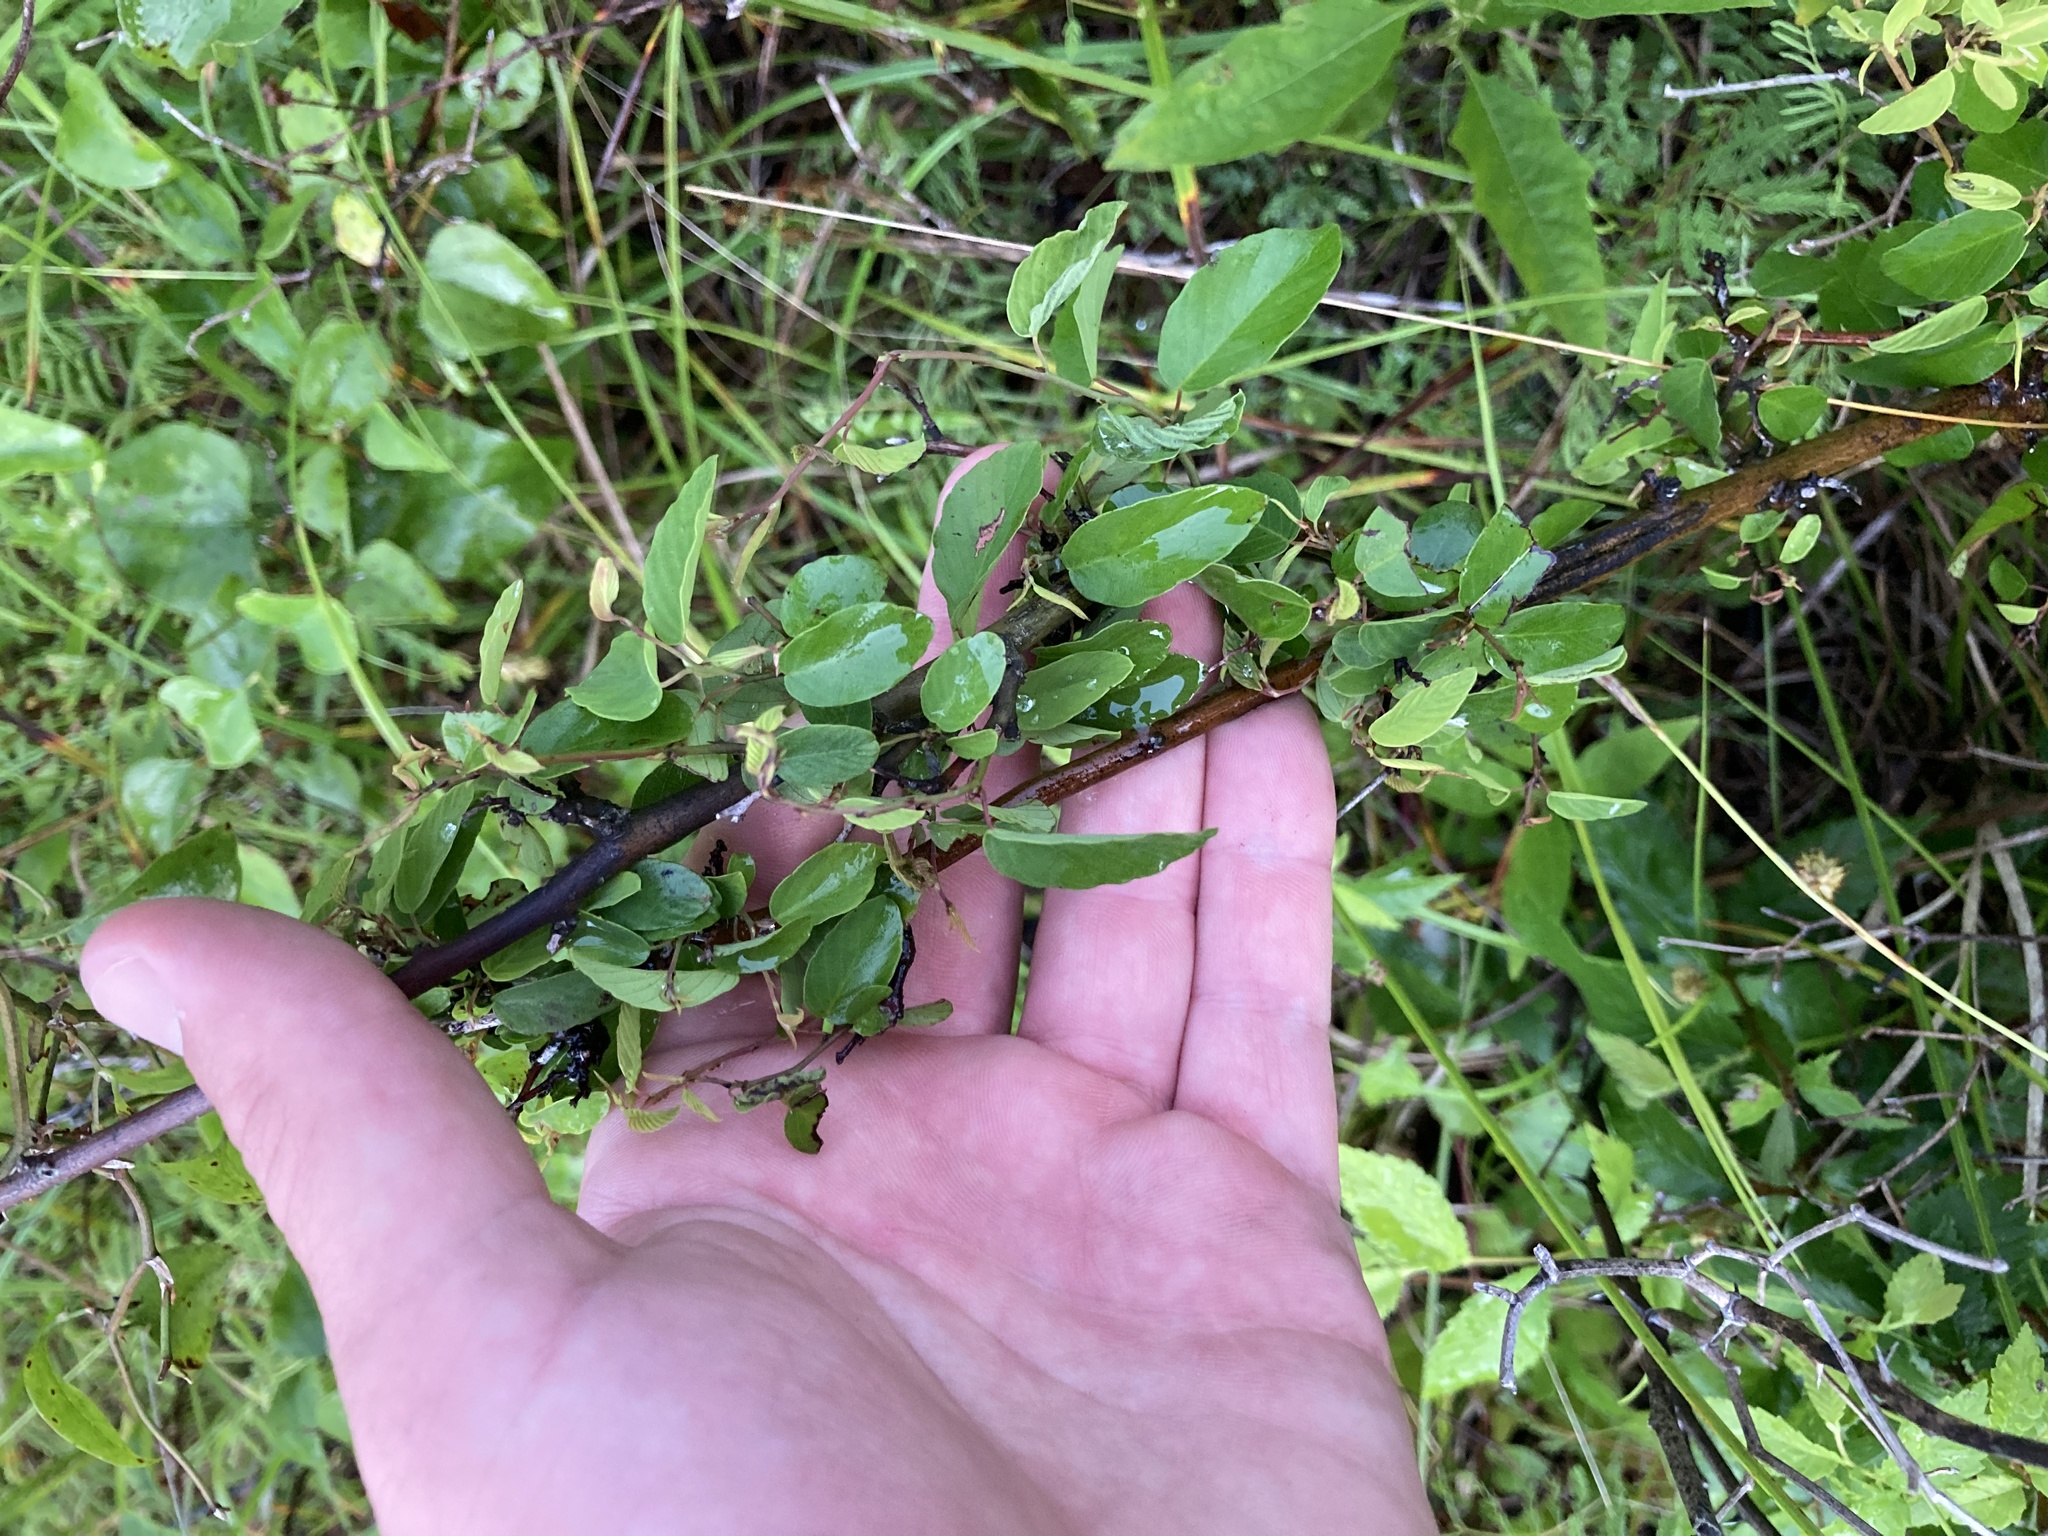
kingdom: Plantae
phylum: Tracheophyta
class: Magnoliopsida
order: Rosales
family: Rhamnaceae
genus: Berchemia
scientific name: Berchemia scandens
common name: Supplejack
